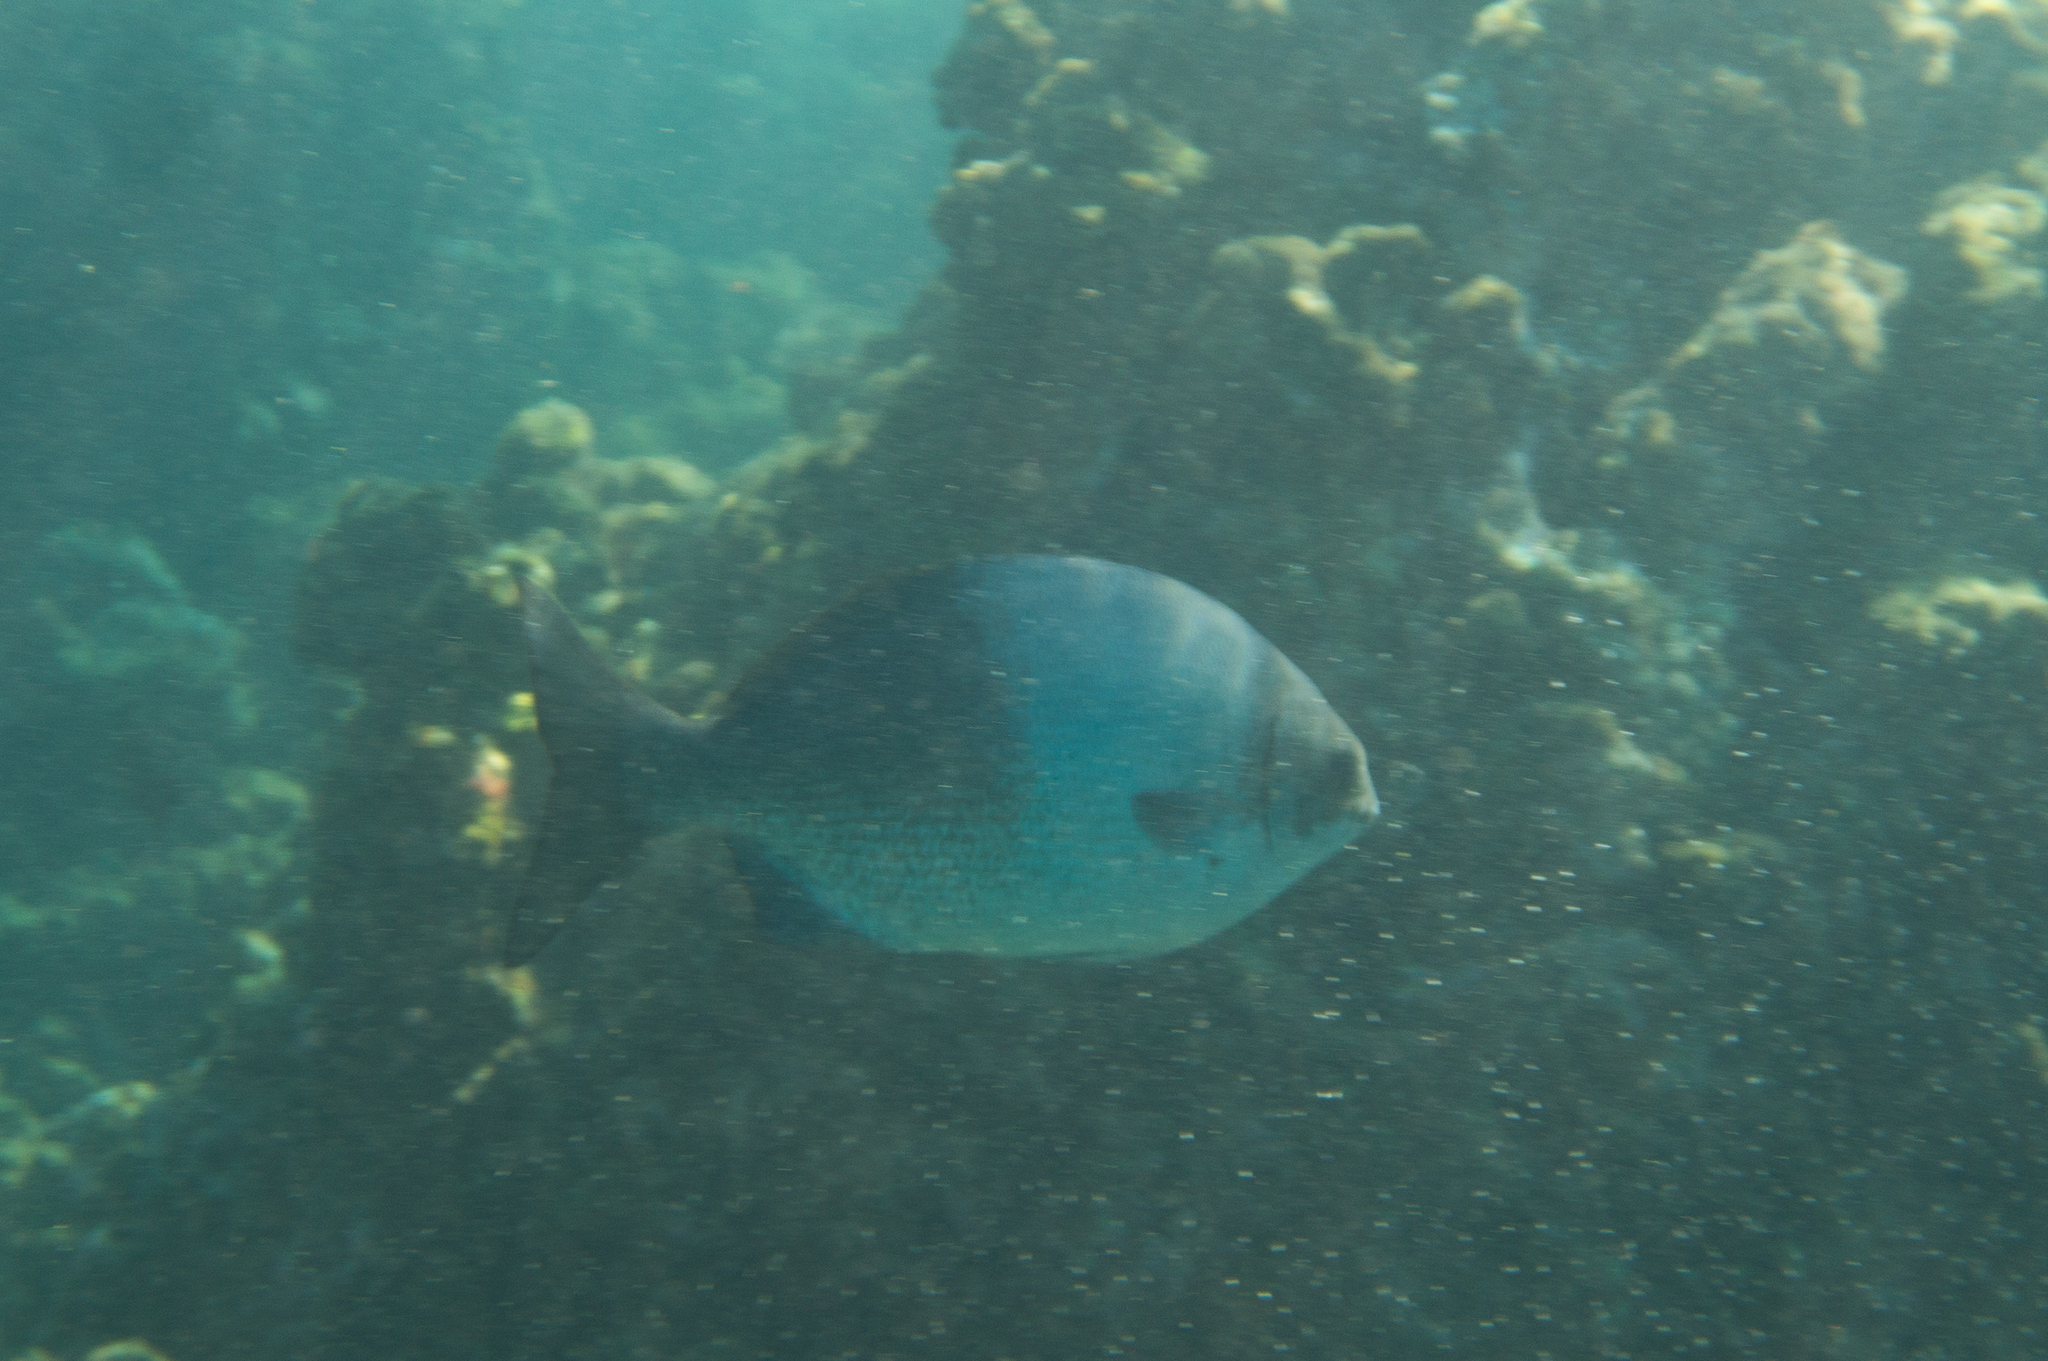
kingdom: Animalia
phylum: Chordata
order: Perciformes
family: Kyphosidae
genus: Kyphosus
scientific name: Kyphosus hawaiiensis
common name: Hawaiian chub
